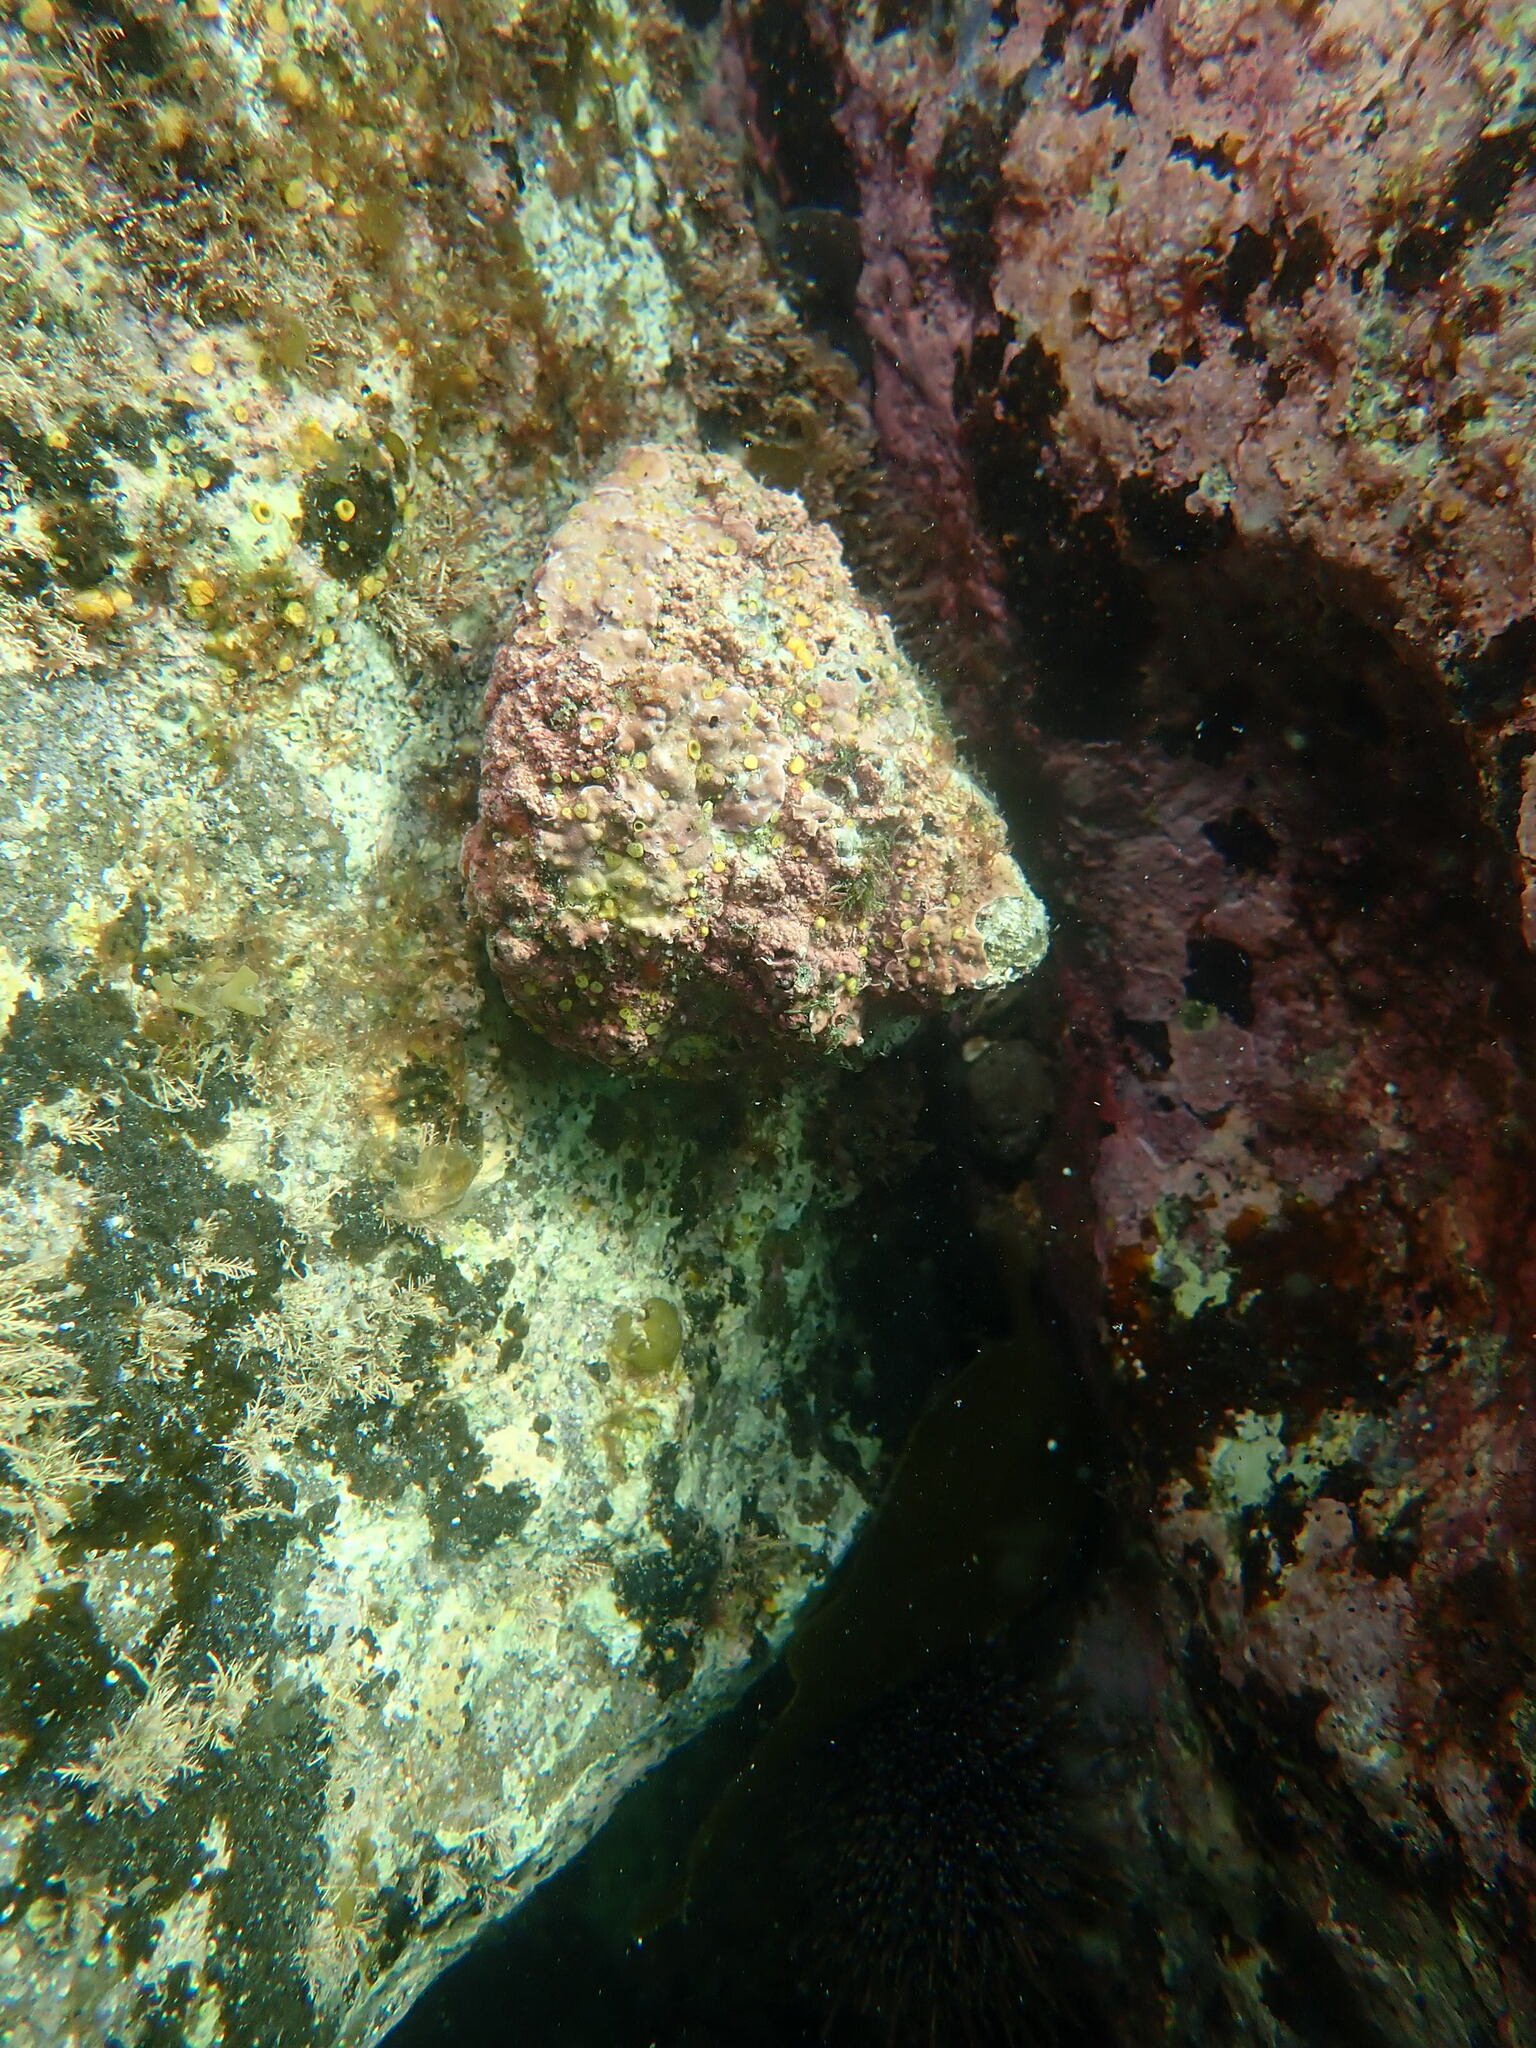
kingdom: Animalia
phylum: Mollusca
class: Gastropoda
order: Trochida
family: Turbinidae
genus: Cookia
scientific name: Cookia sulcata
